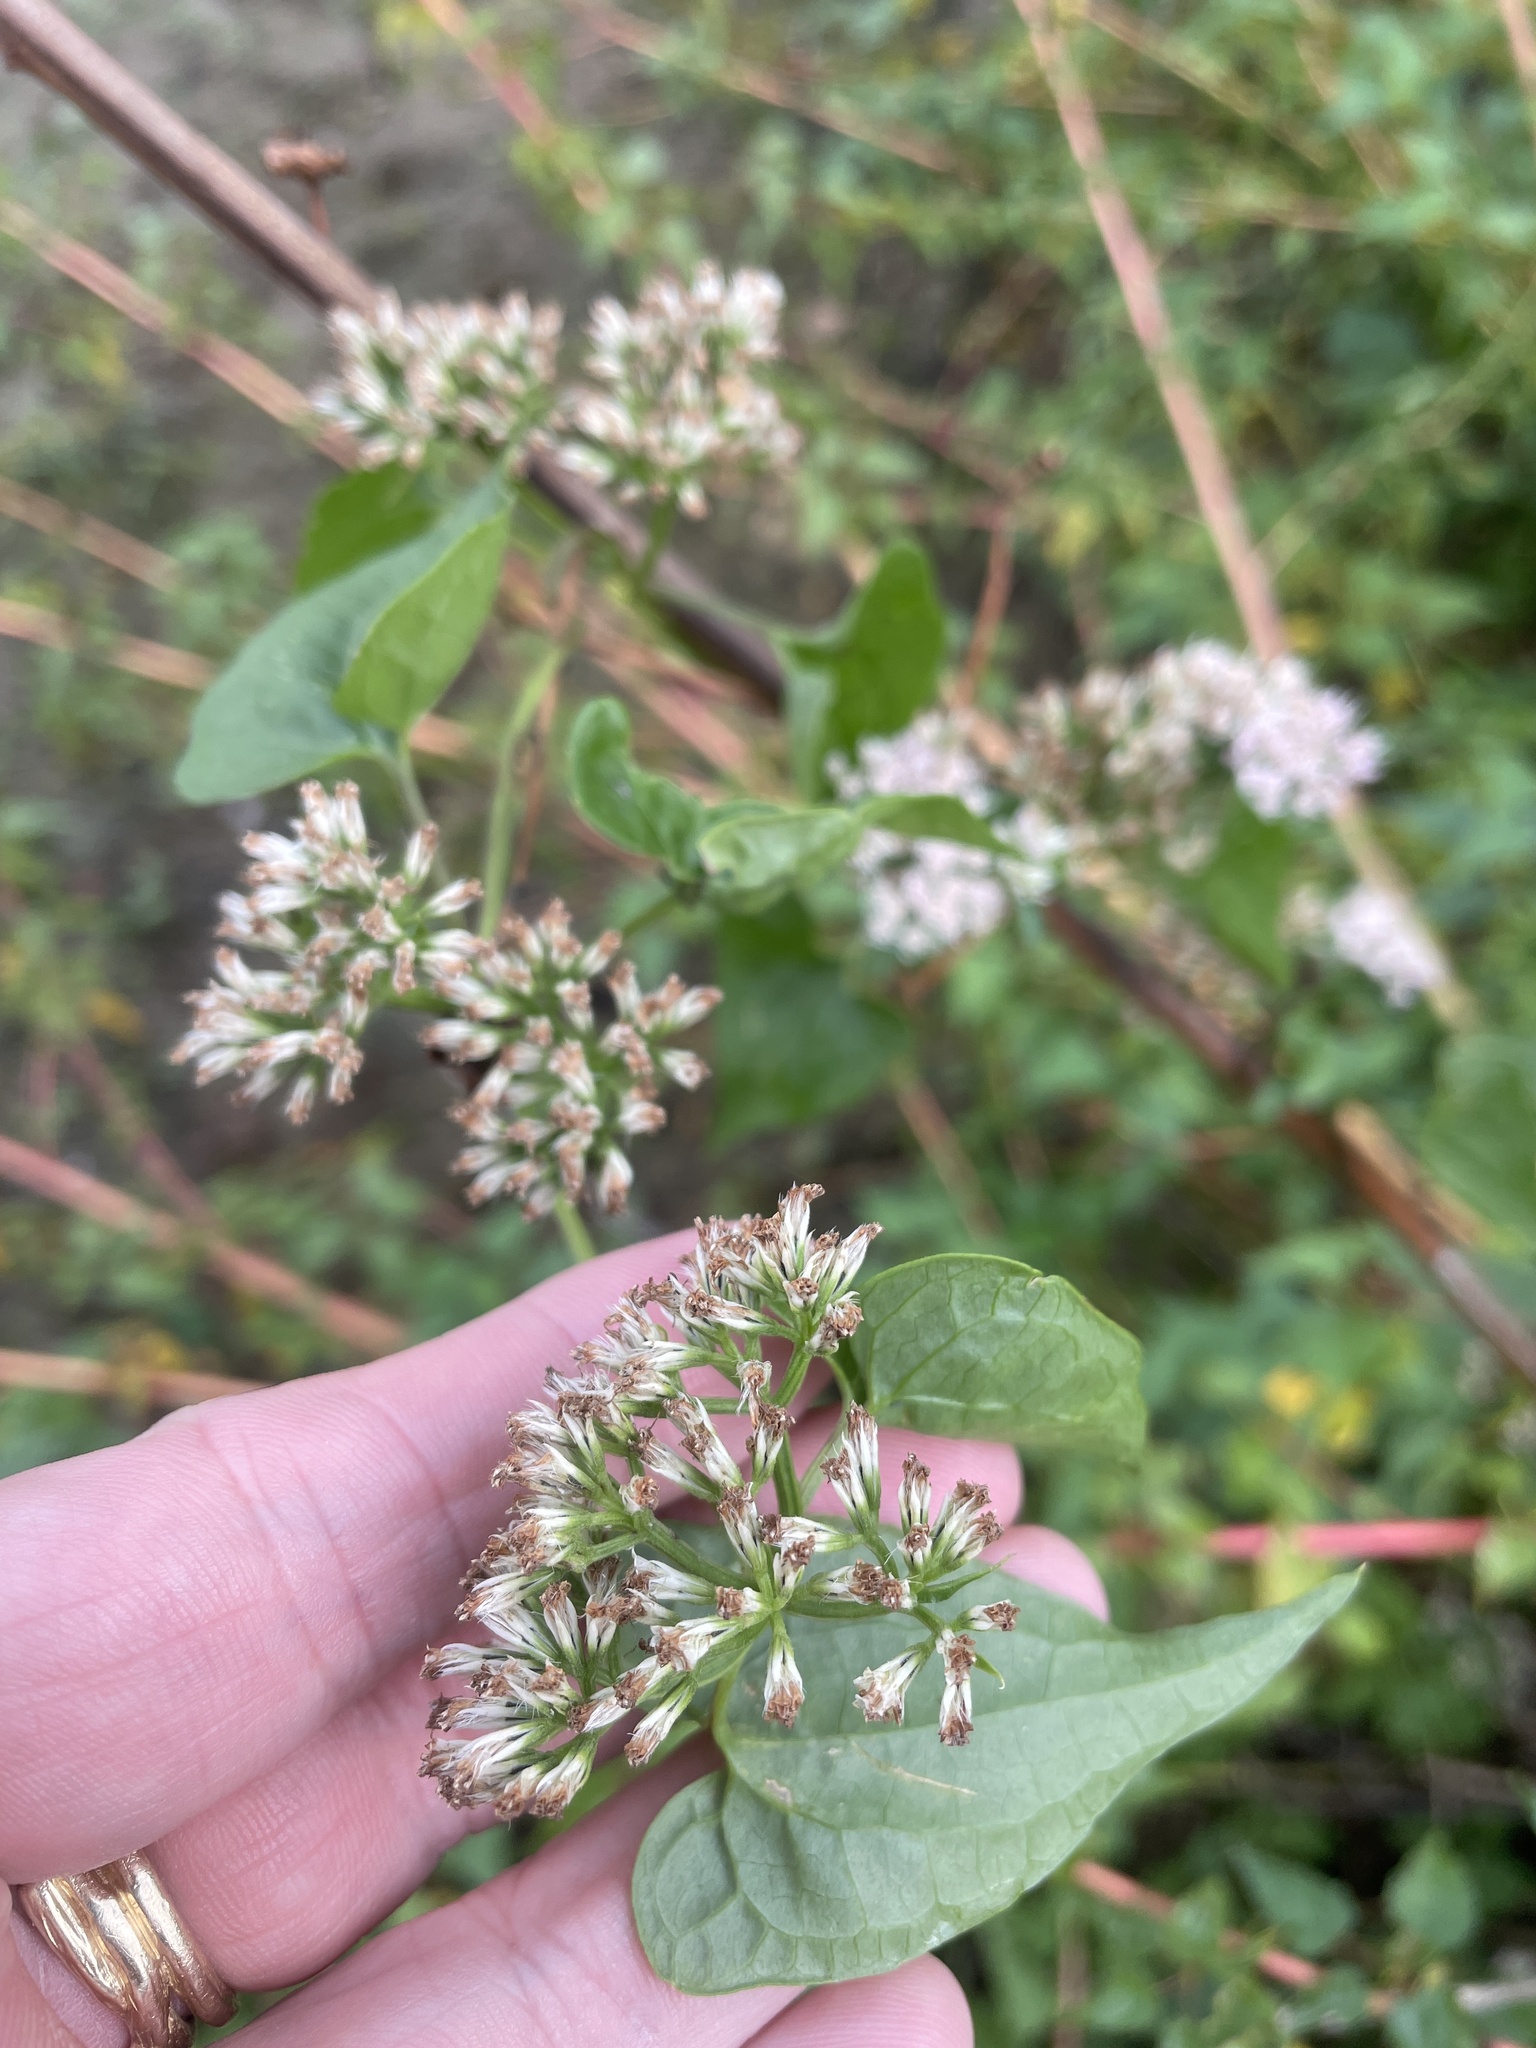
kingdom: Plantae
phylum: Tracheophyta
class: Magnoliopsida
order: Asterales
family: Asteraceae
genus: Mikania
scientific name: Mikania scandens
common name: Climbing hempvine
